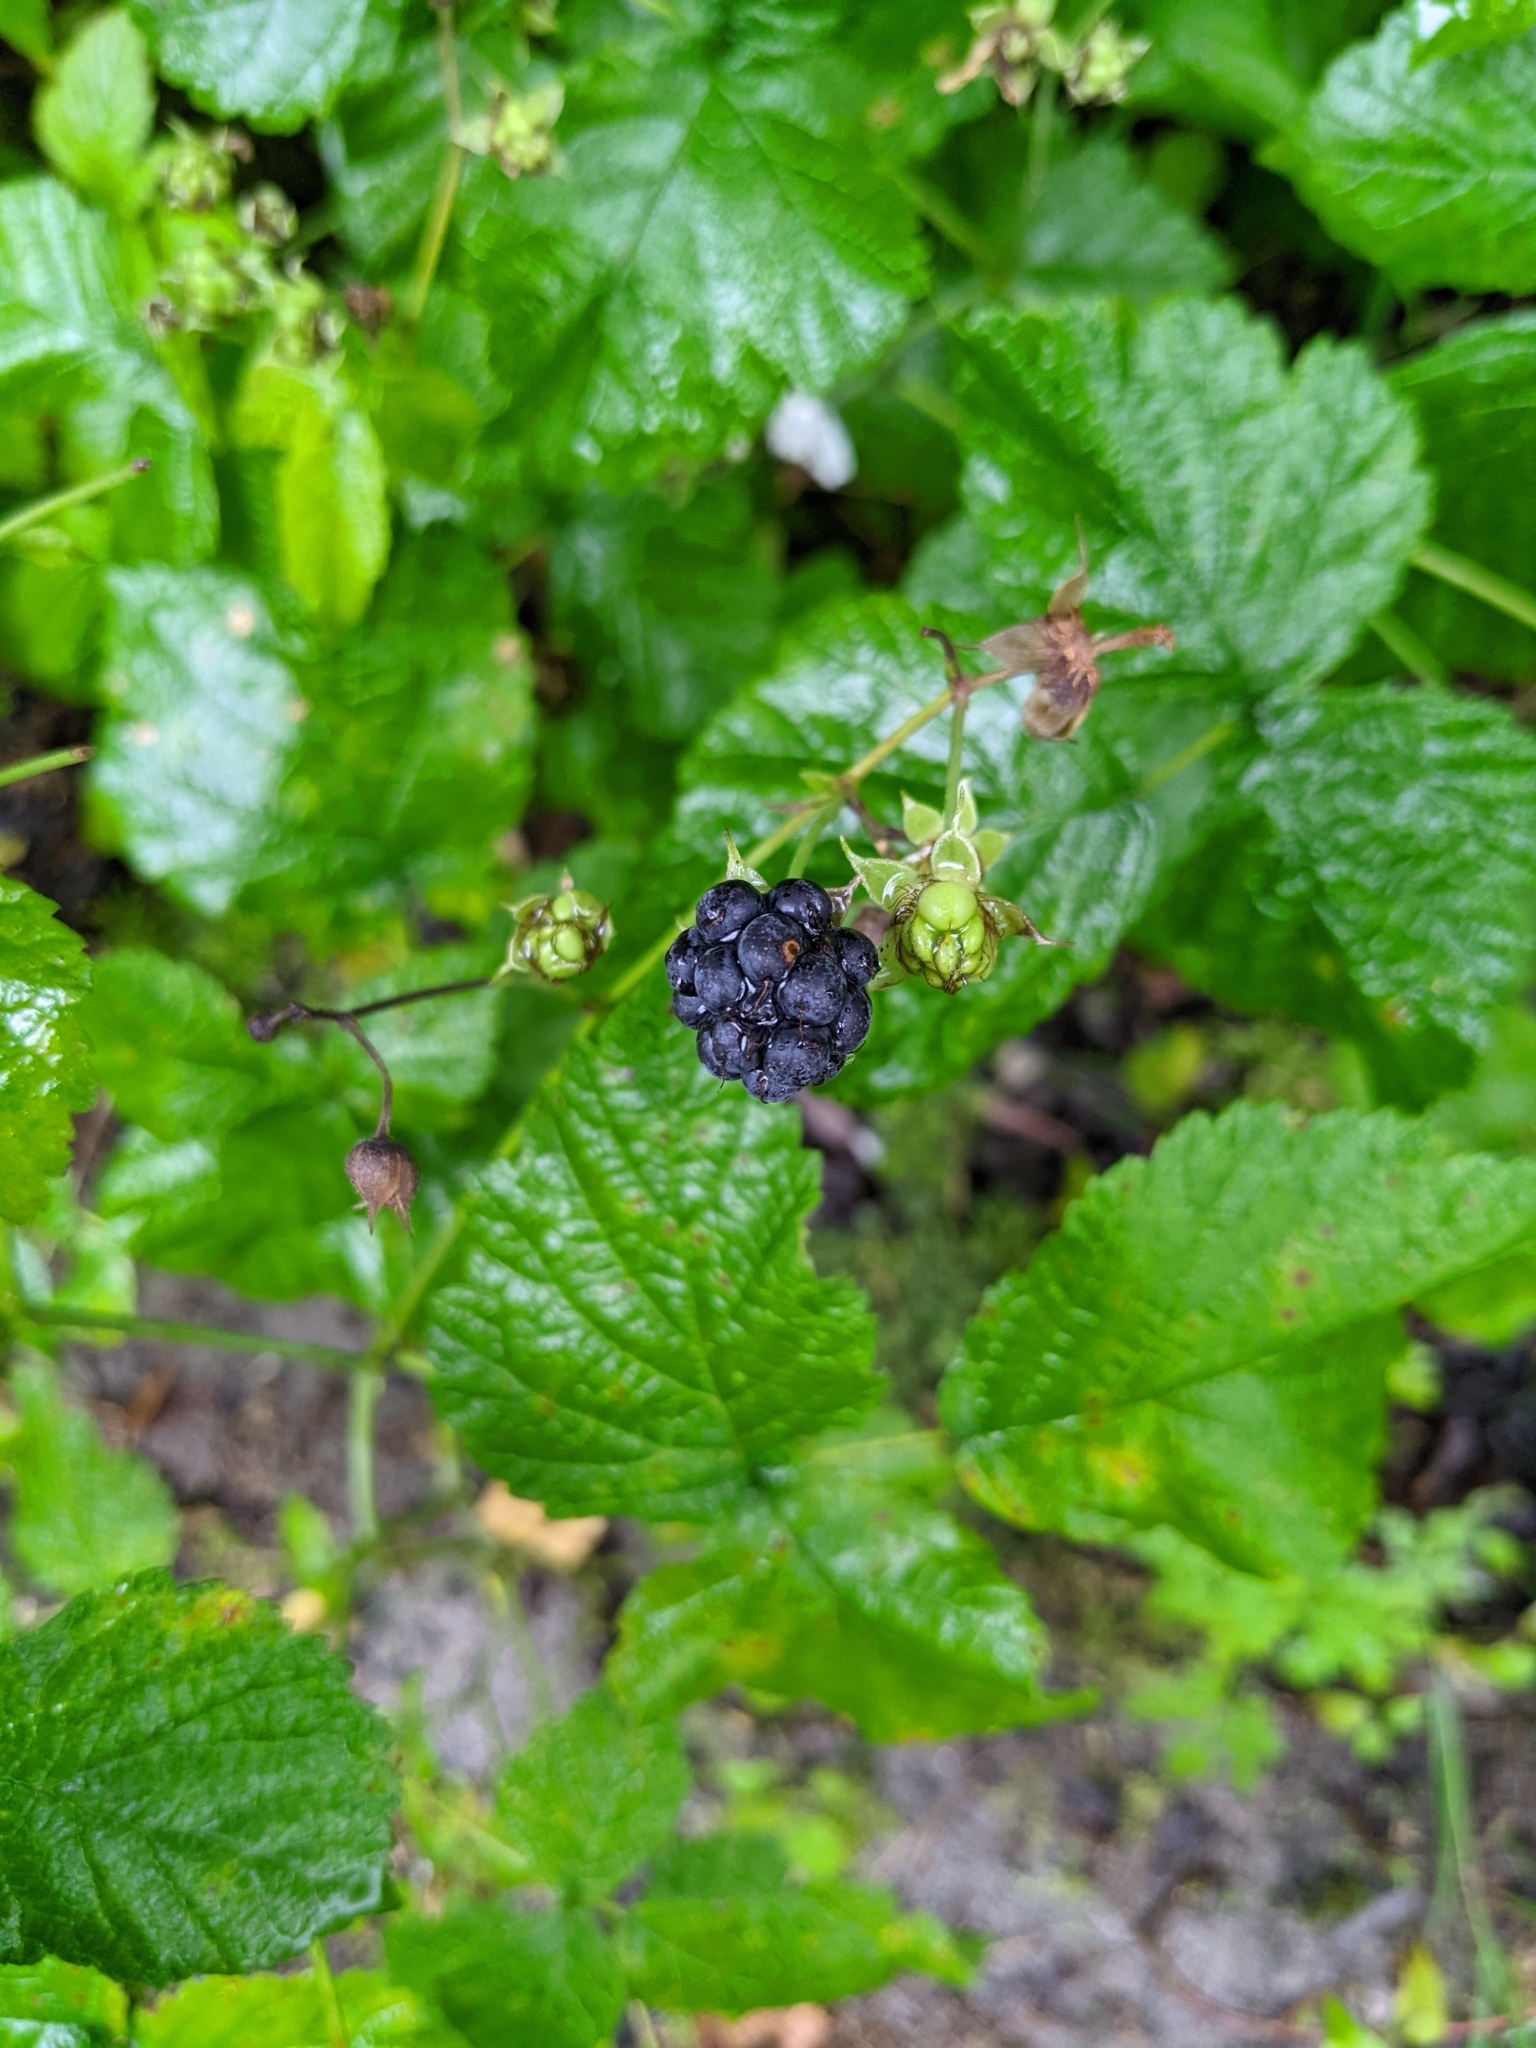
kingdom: Plantae
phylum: Tracheophyta
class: Magnoliopsida
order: Rosales
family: Rosaceae
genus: Rubus
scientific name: Rubus caesius
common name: Dewberry
